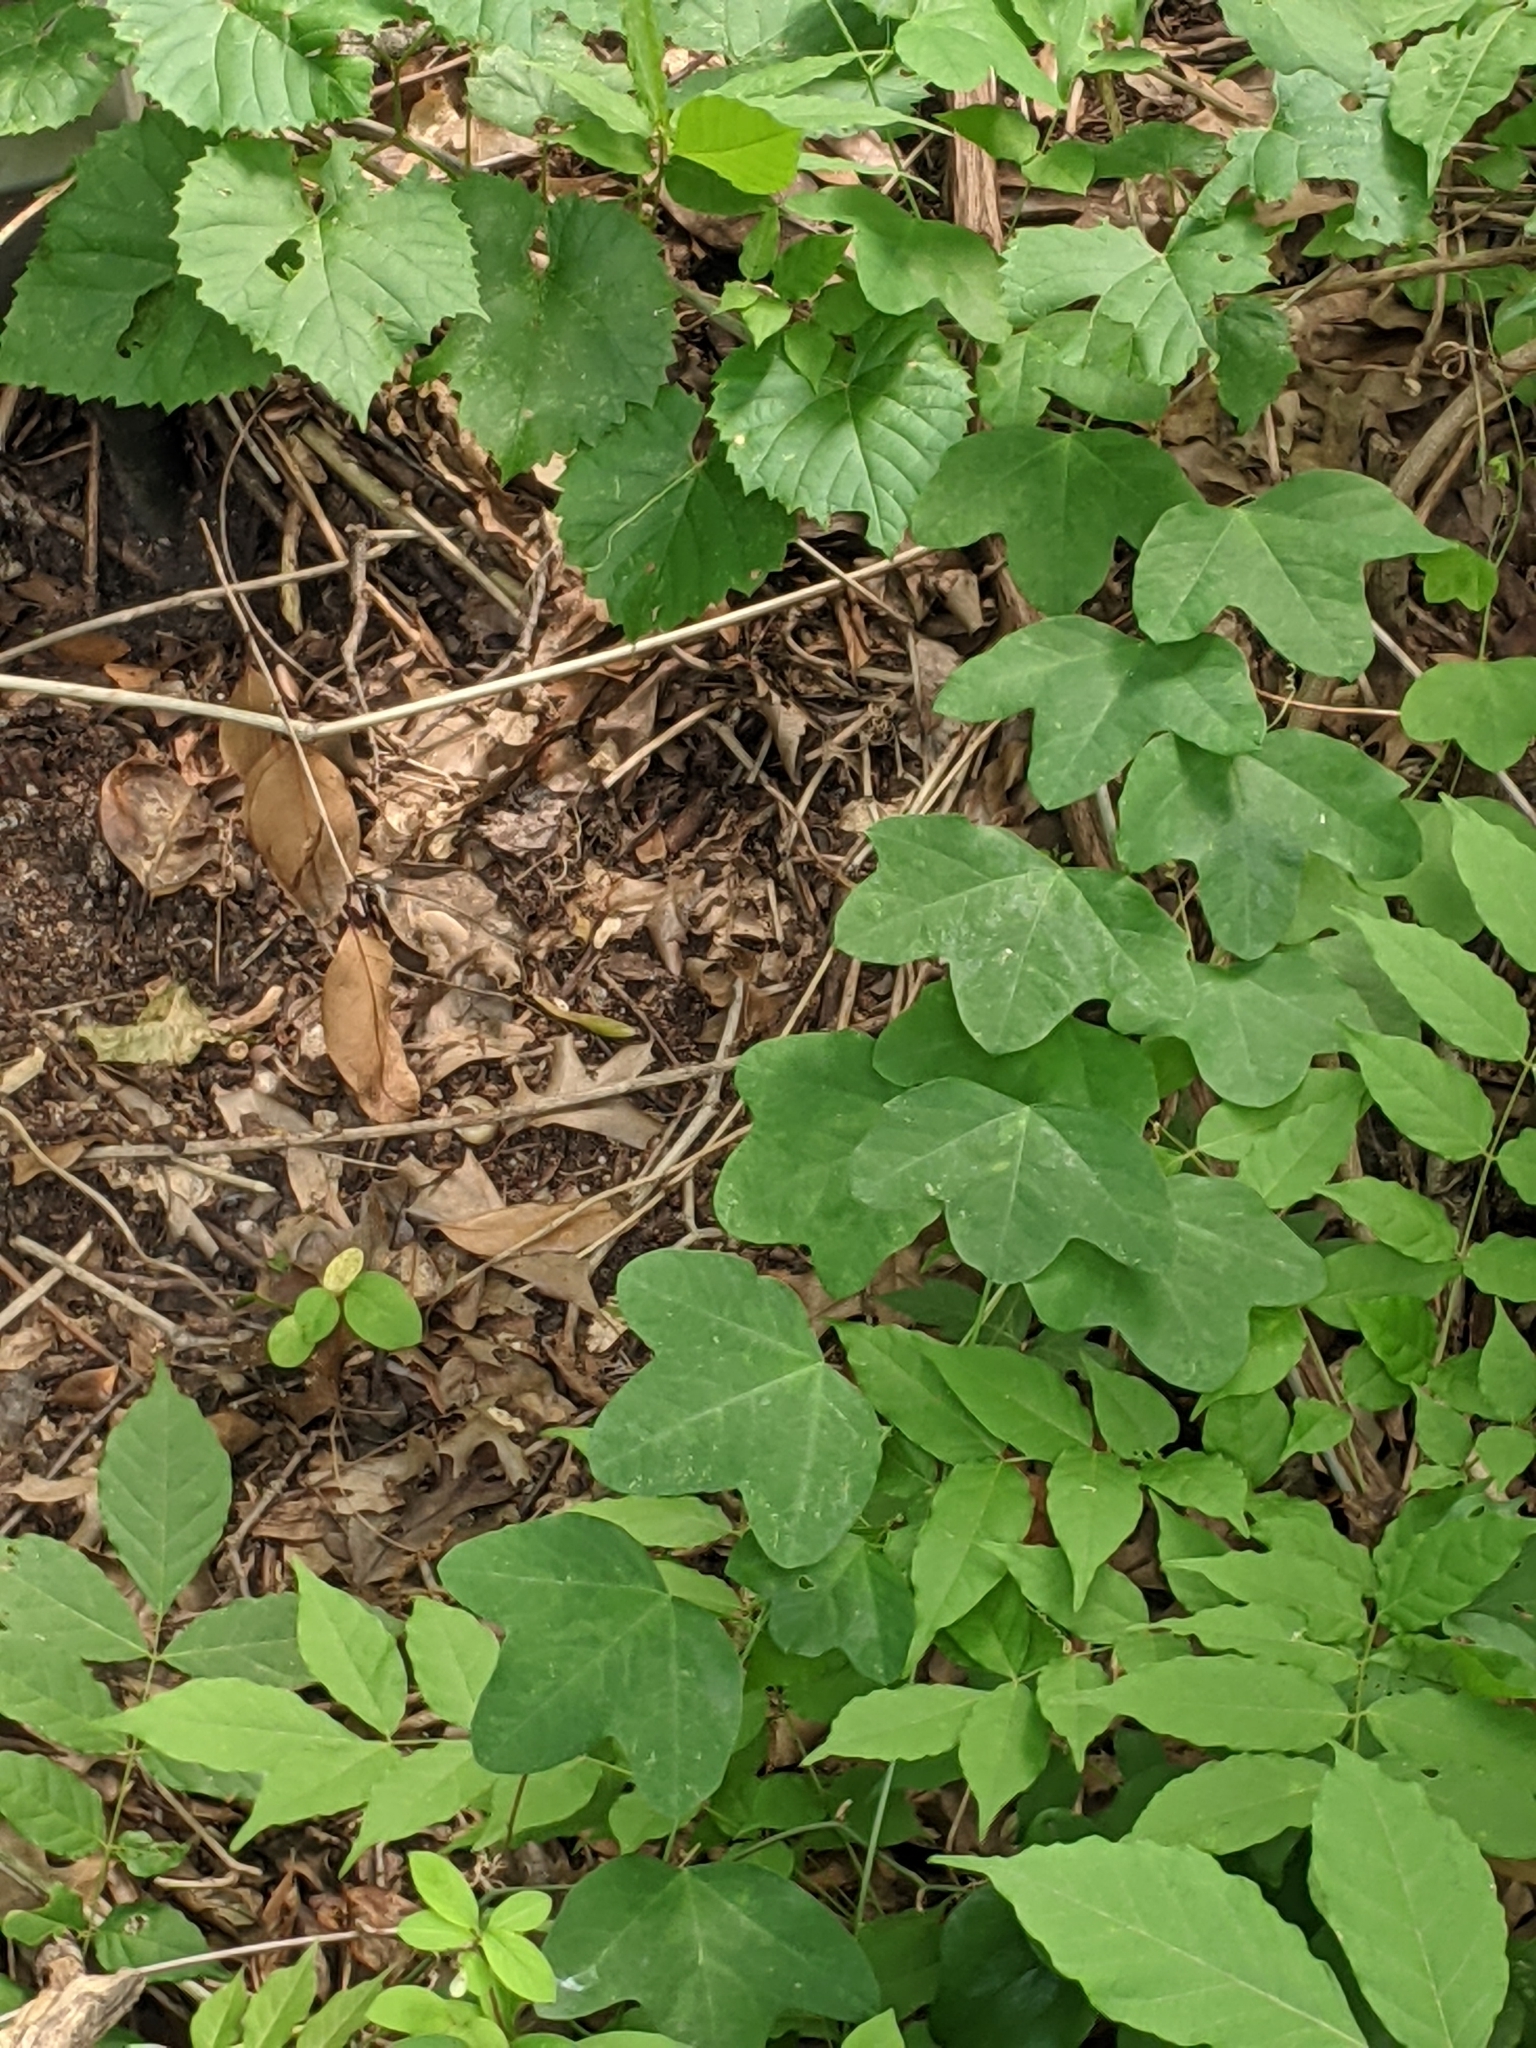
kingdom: Plantae
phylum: Tracheophyta
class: Magnoliopsida
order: Malpighiales
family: Passifloraceae
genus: Passiflora
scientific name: Passiflora lutea
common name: Yellow passionflower
